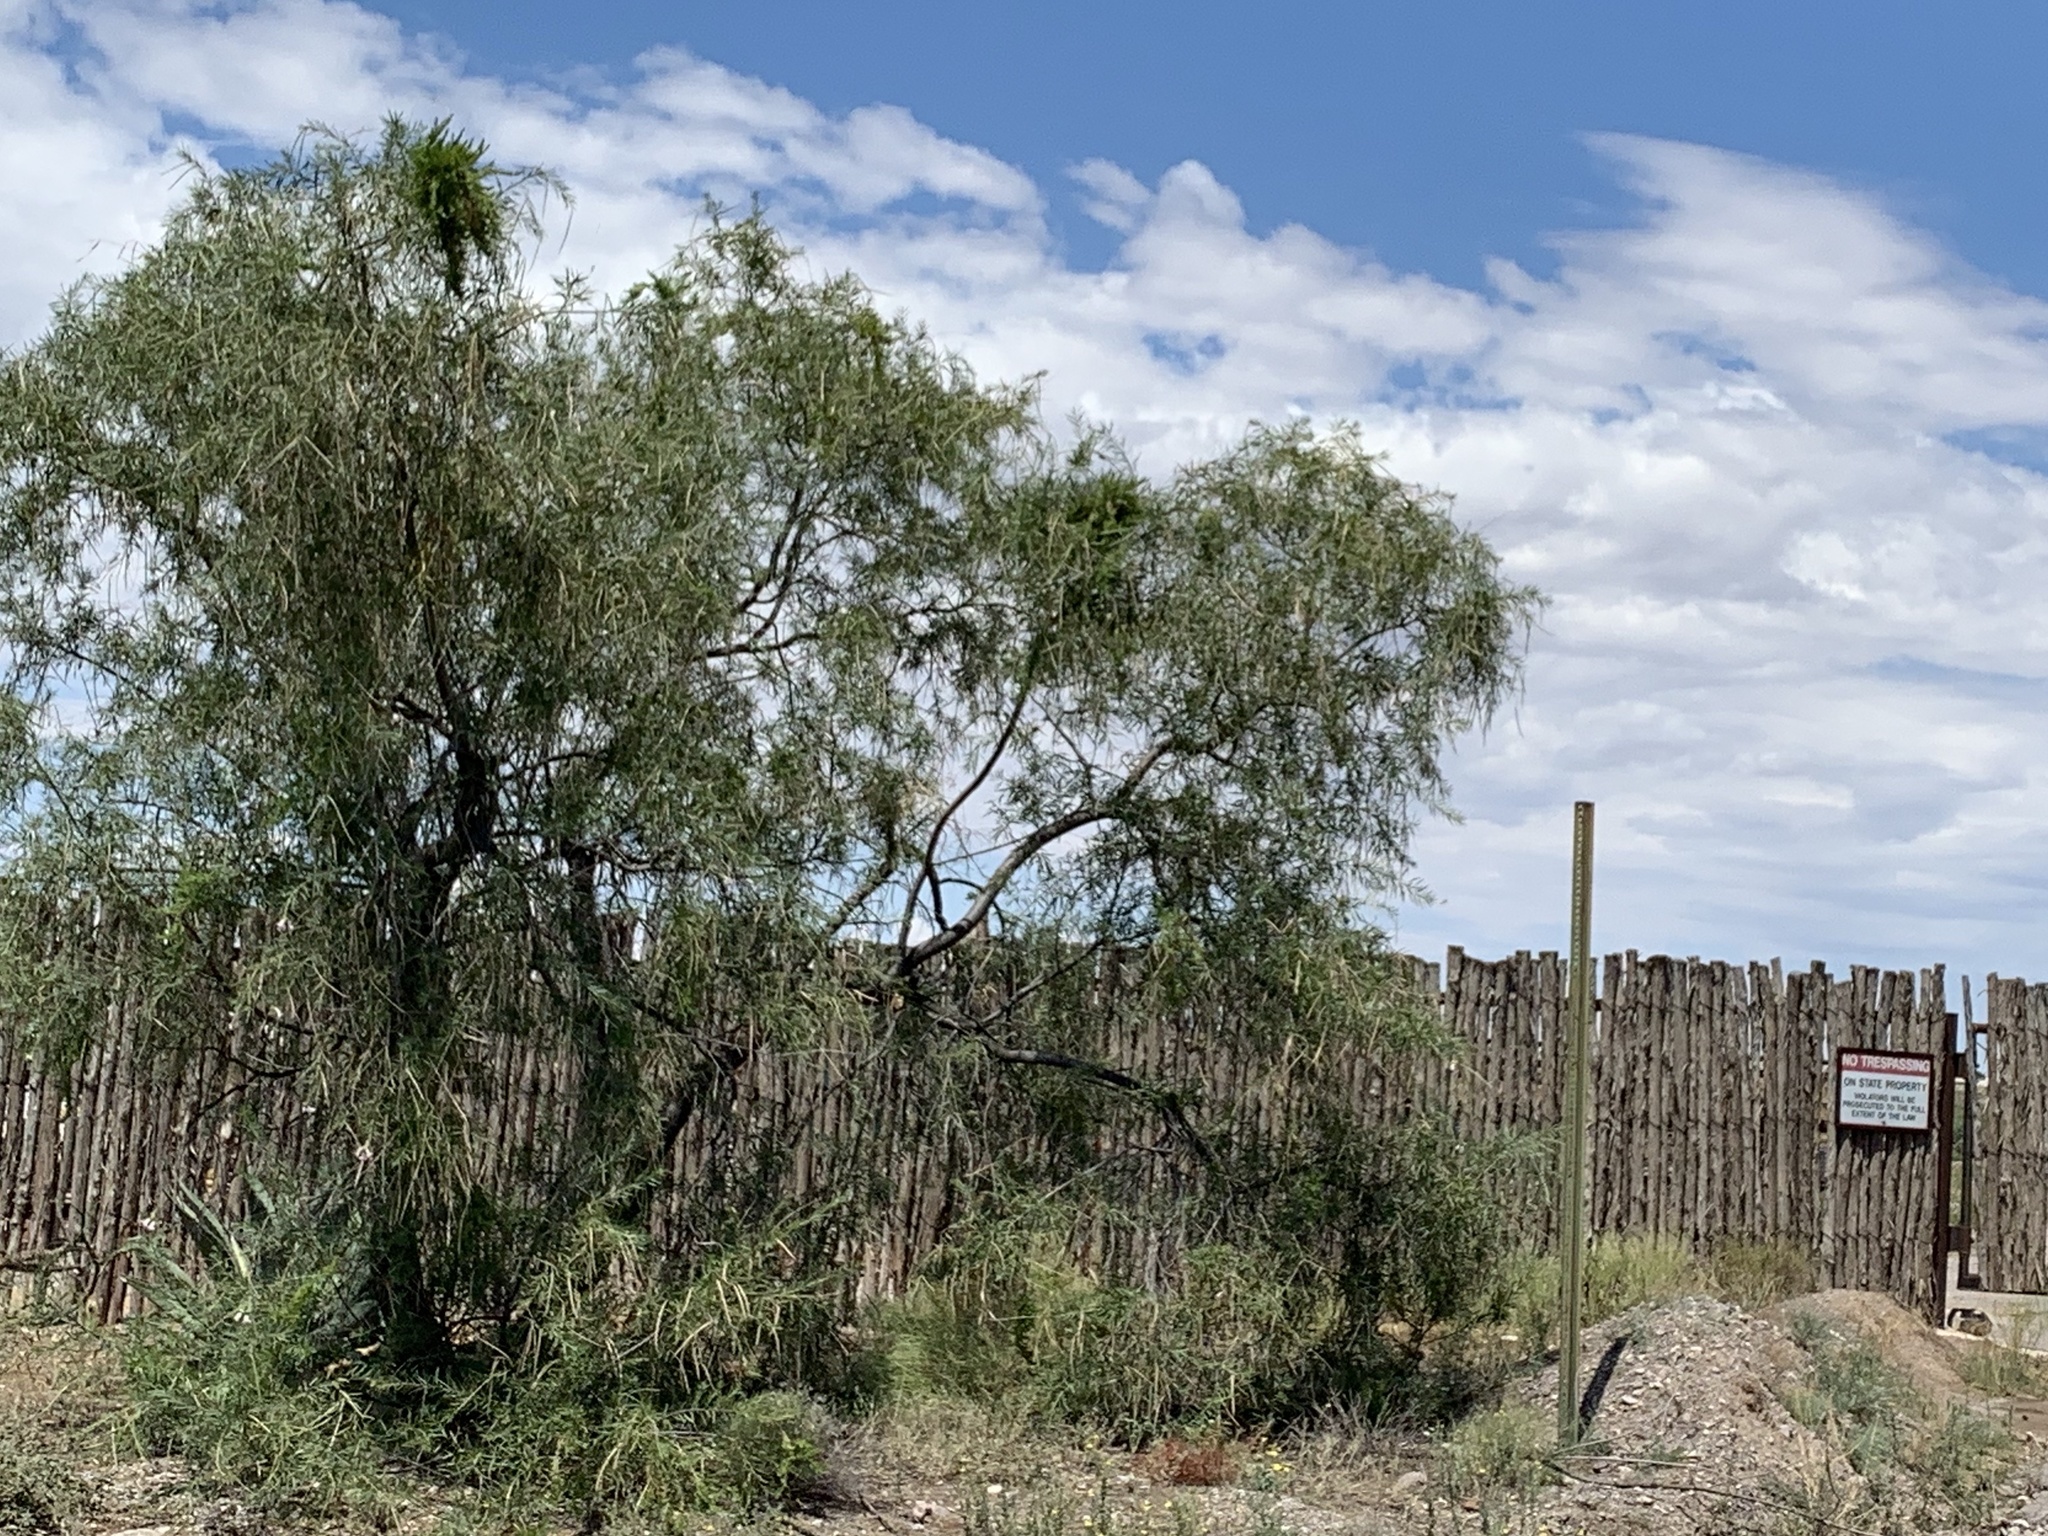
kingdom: Plantae
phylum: Tracheophyta
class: Magnoliopsida
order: Lamiales
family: Bignoniaceae
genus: Chilopsis
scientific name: Chilopsis linearis
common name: Desert-willow
